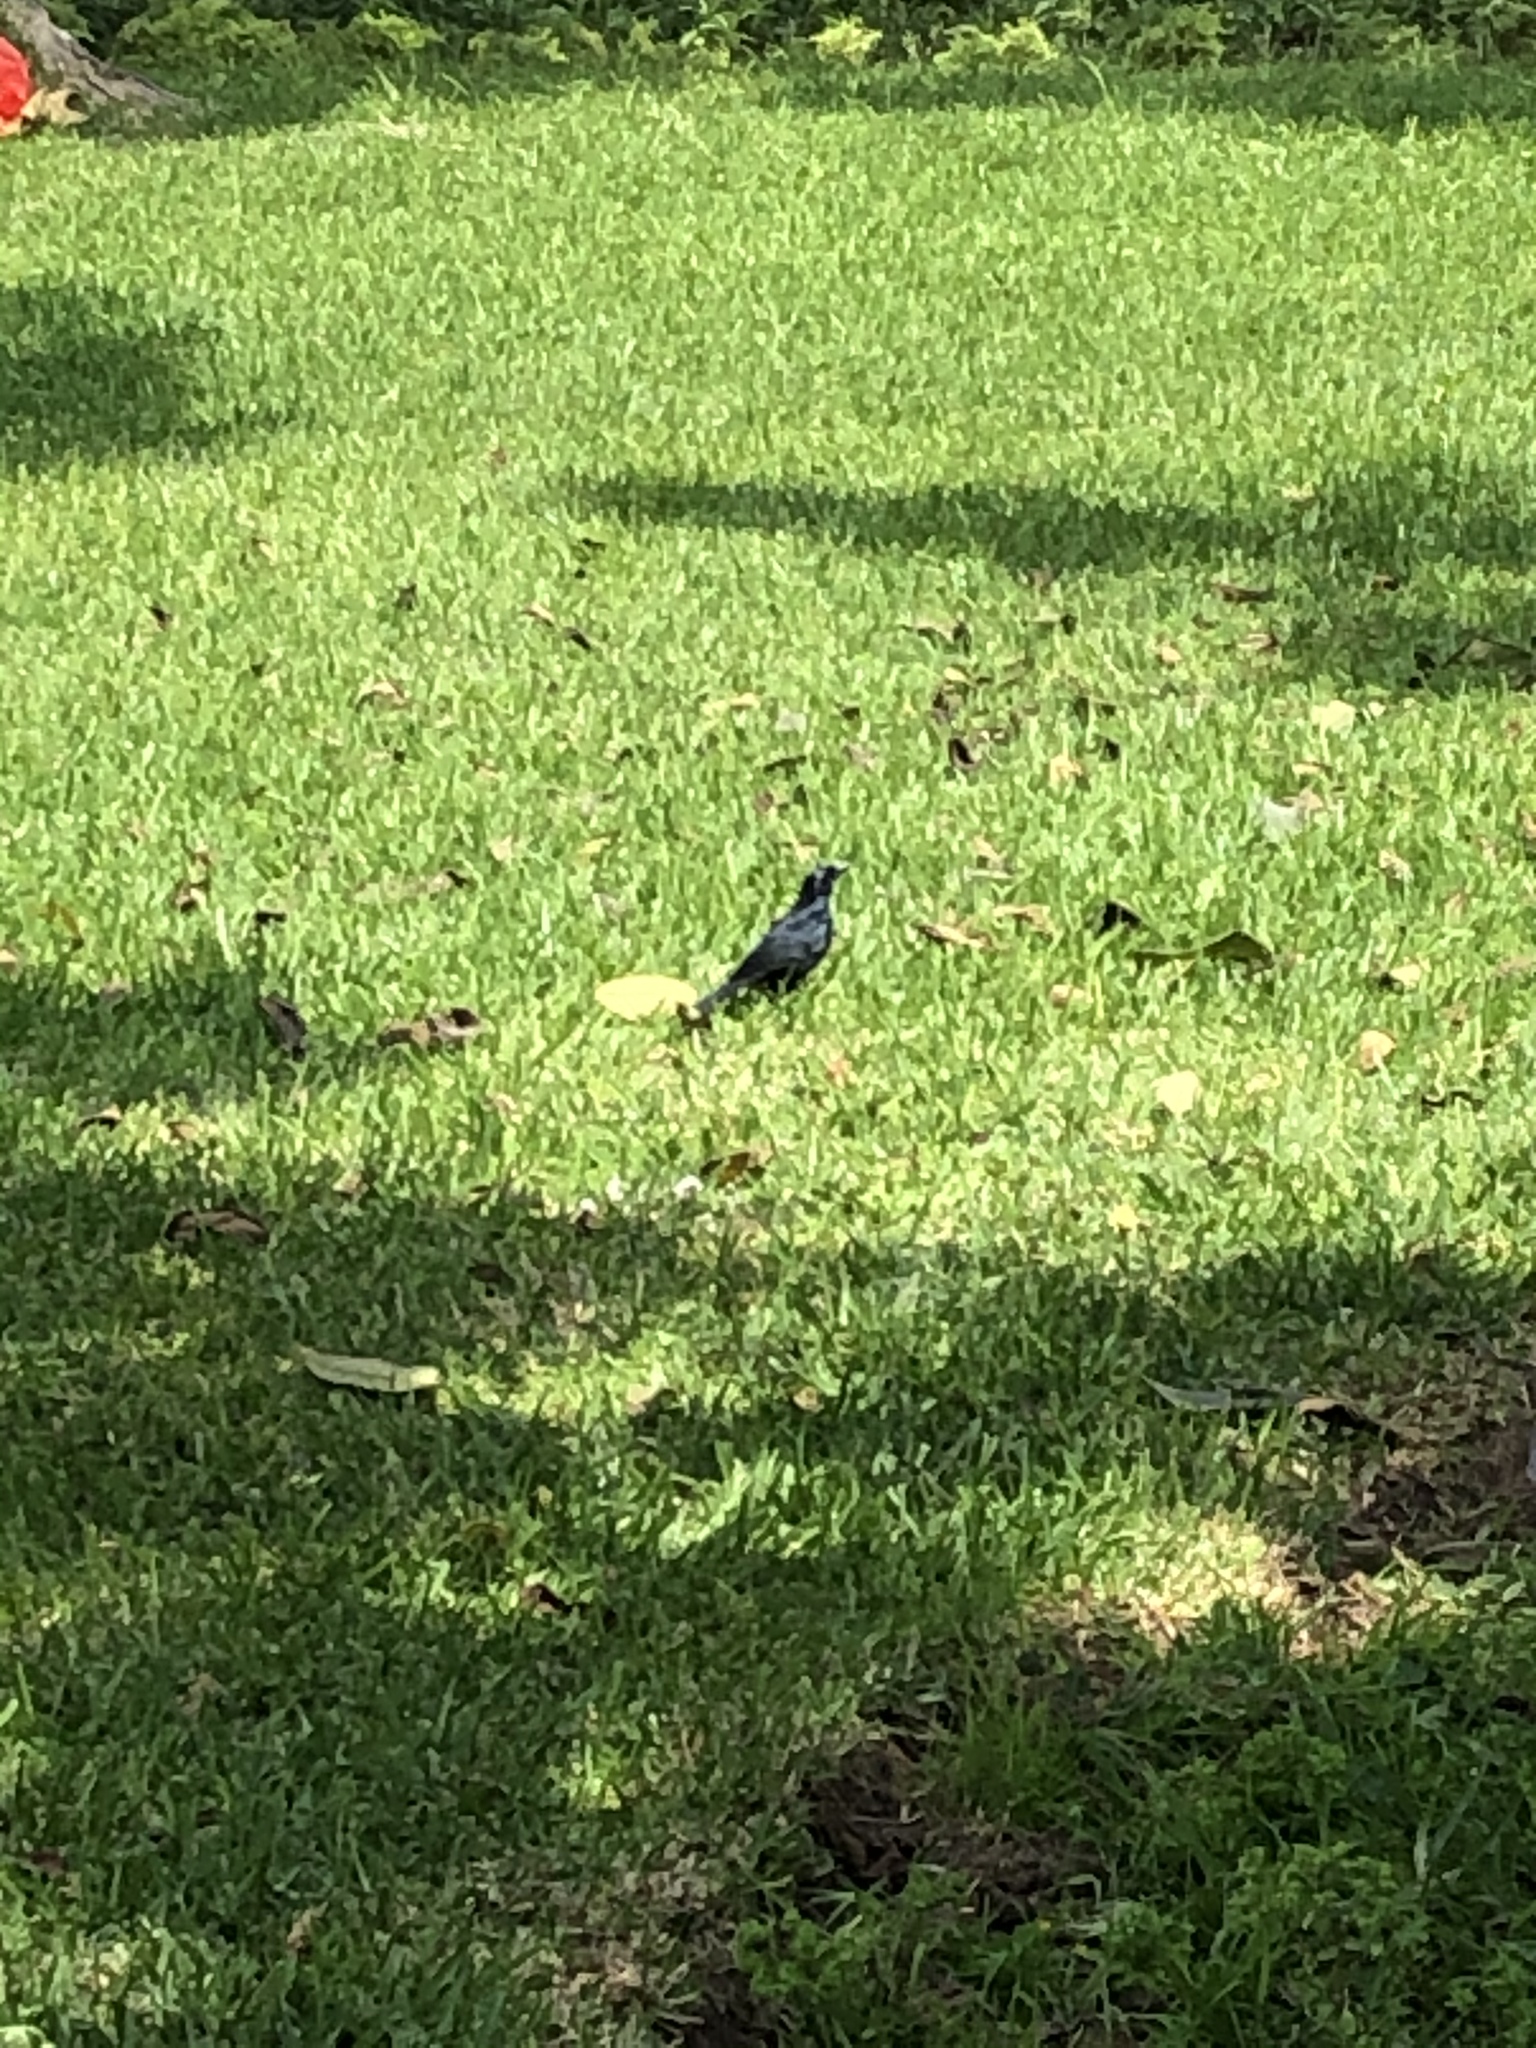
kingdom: Animalia
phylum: Chordata
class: Aves
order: Passeriformes
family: Icteridae
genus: Molothrus
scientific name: Molothrus bonariensis
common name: Shiny cowbird
